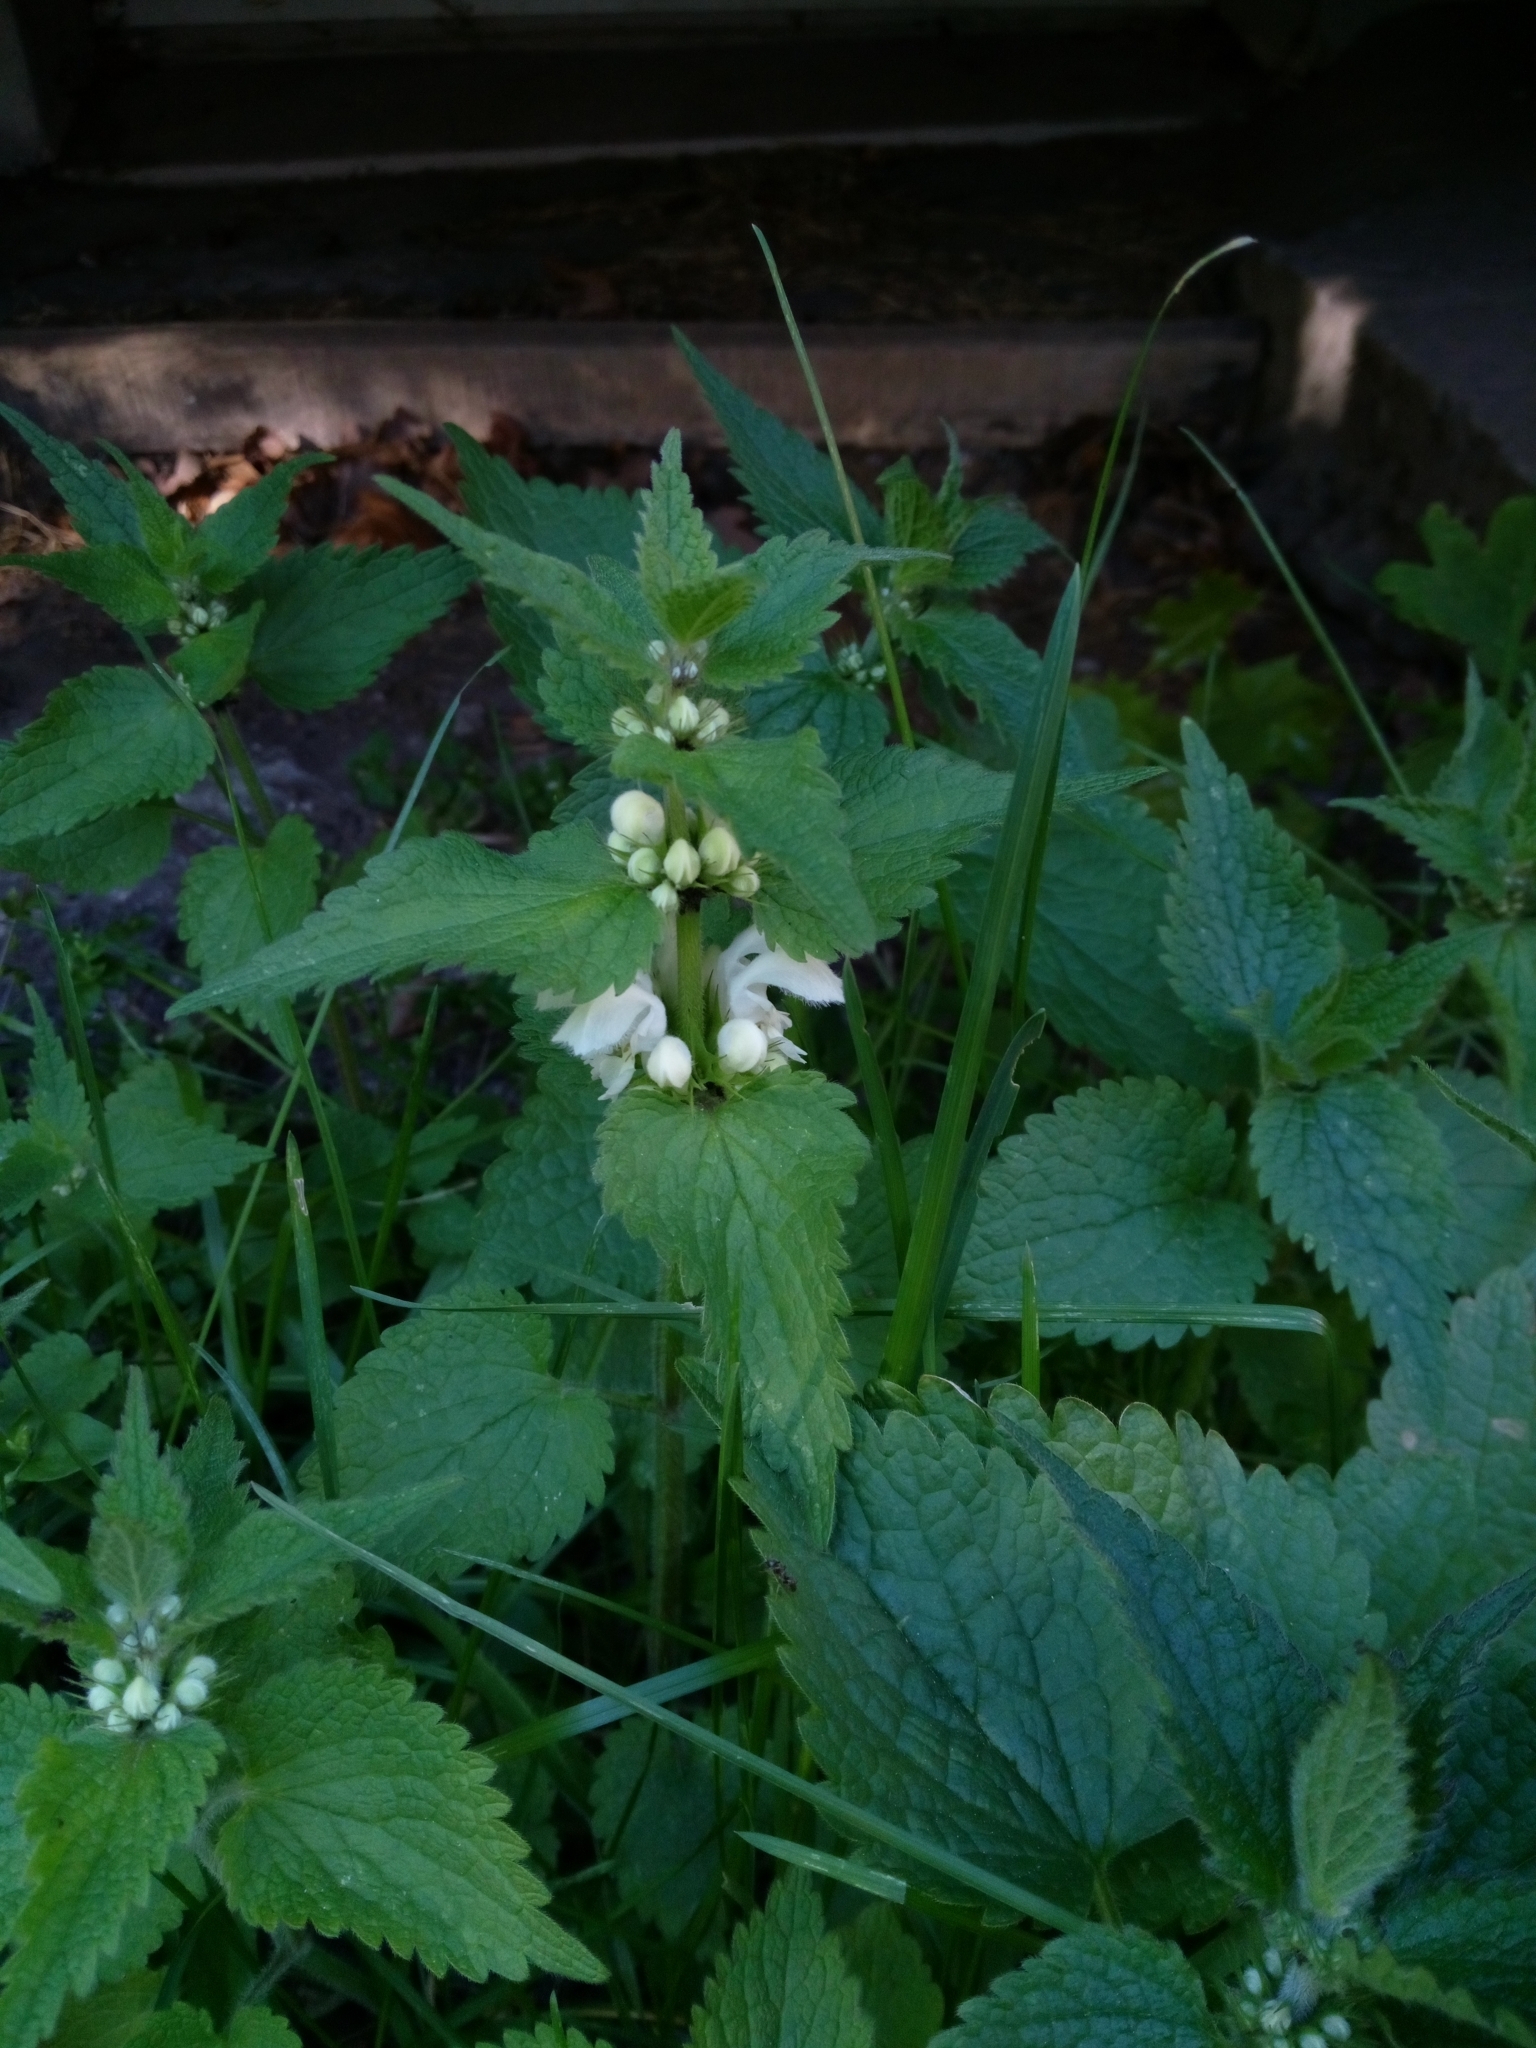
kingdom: Plantae
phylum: Tracheophyta
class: Magnoliopsida
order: Lamiales
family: Lamiaceae
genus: Lamium
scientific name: Lamium album
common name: White dead-nettle
